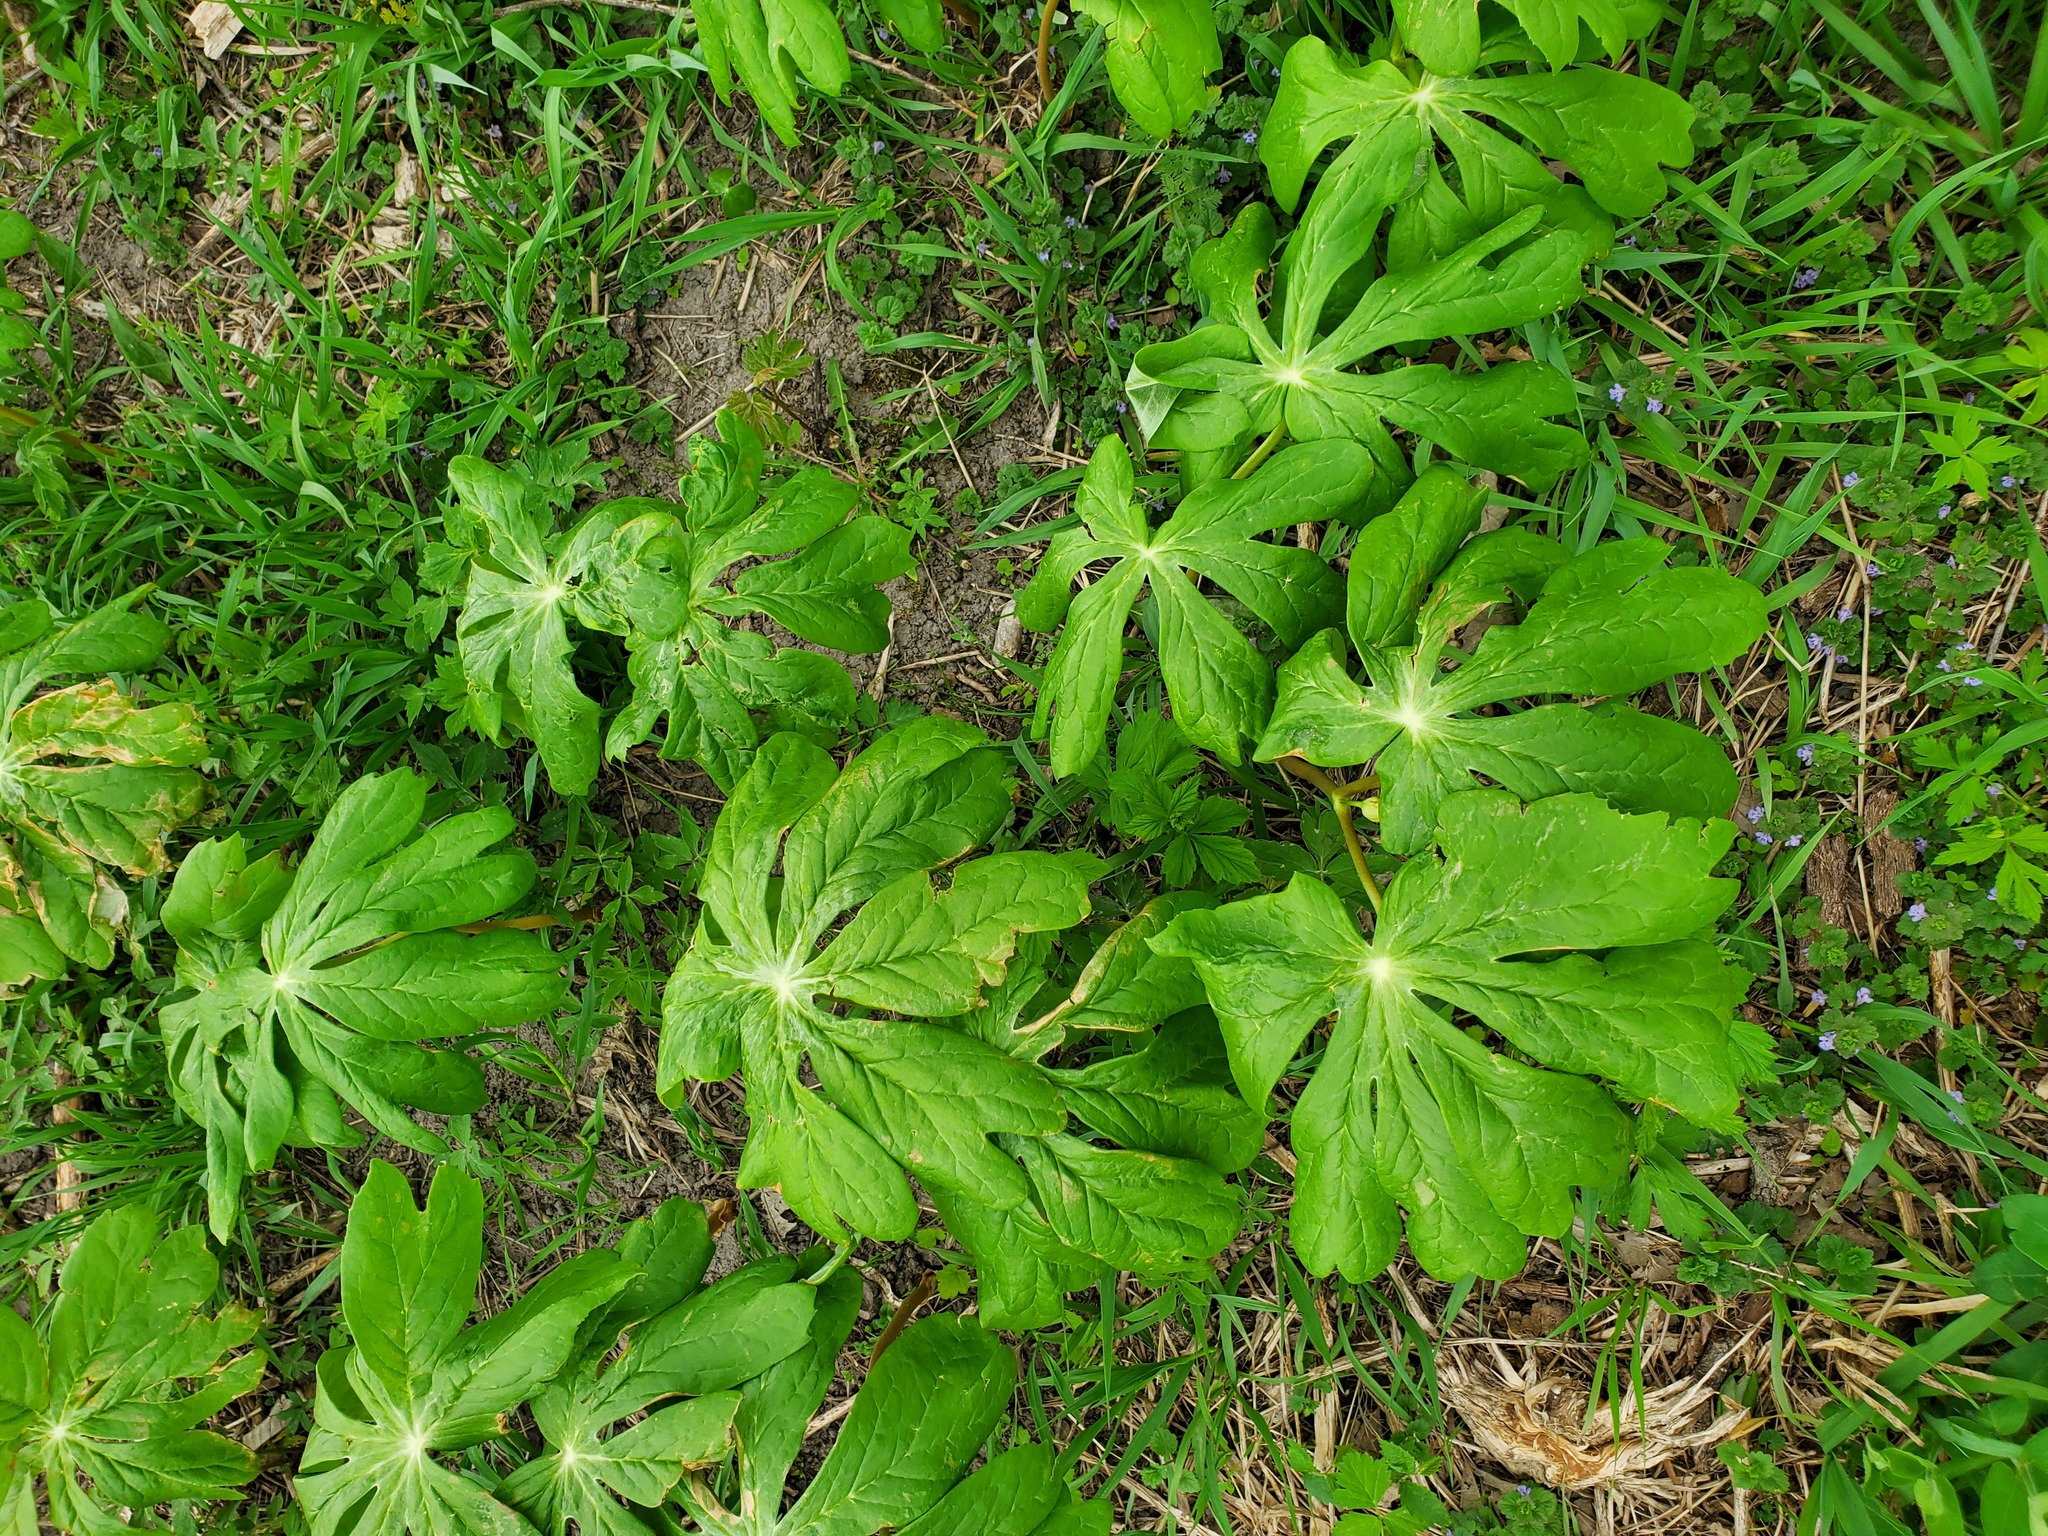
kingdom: Plantae
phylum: Tracheophyta
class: Magnoliopsida
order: Ranunculales
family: Berberidaceae
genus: Podophyllum
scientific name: Podophyllum peltatum
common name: Wild mandrake
